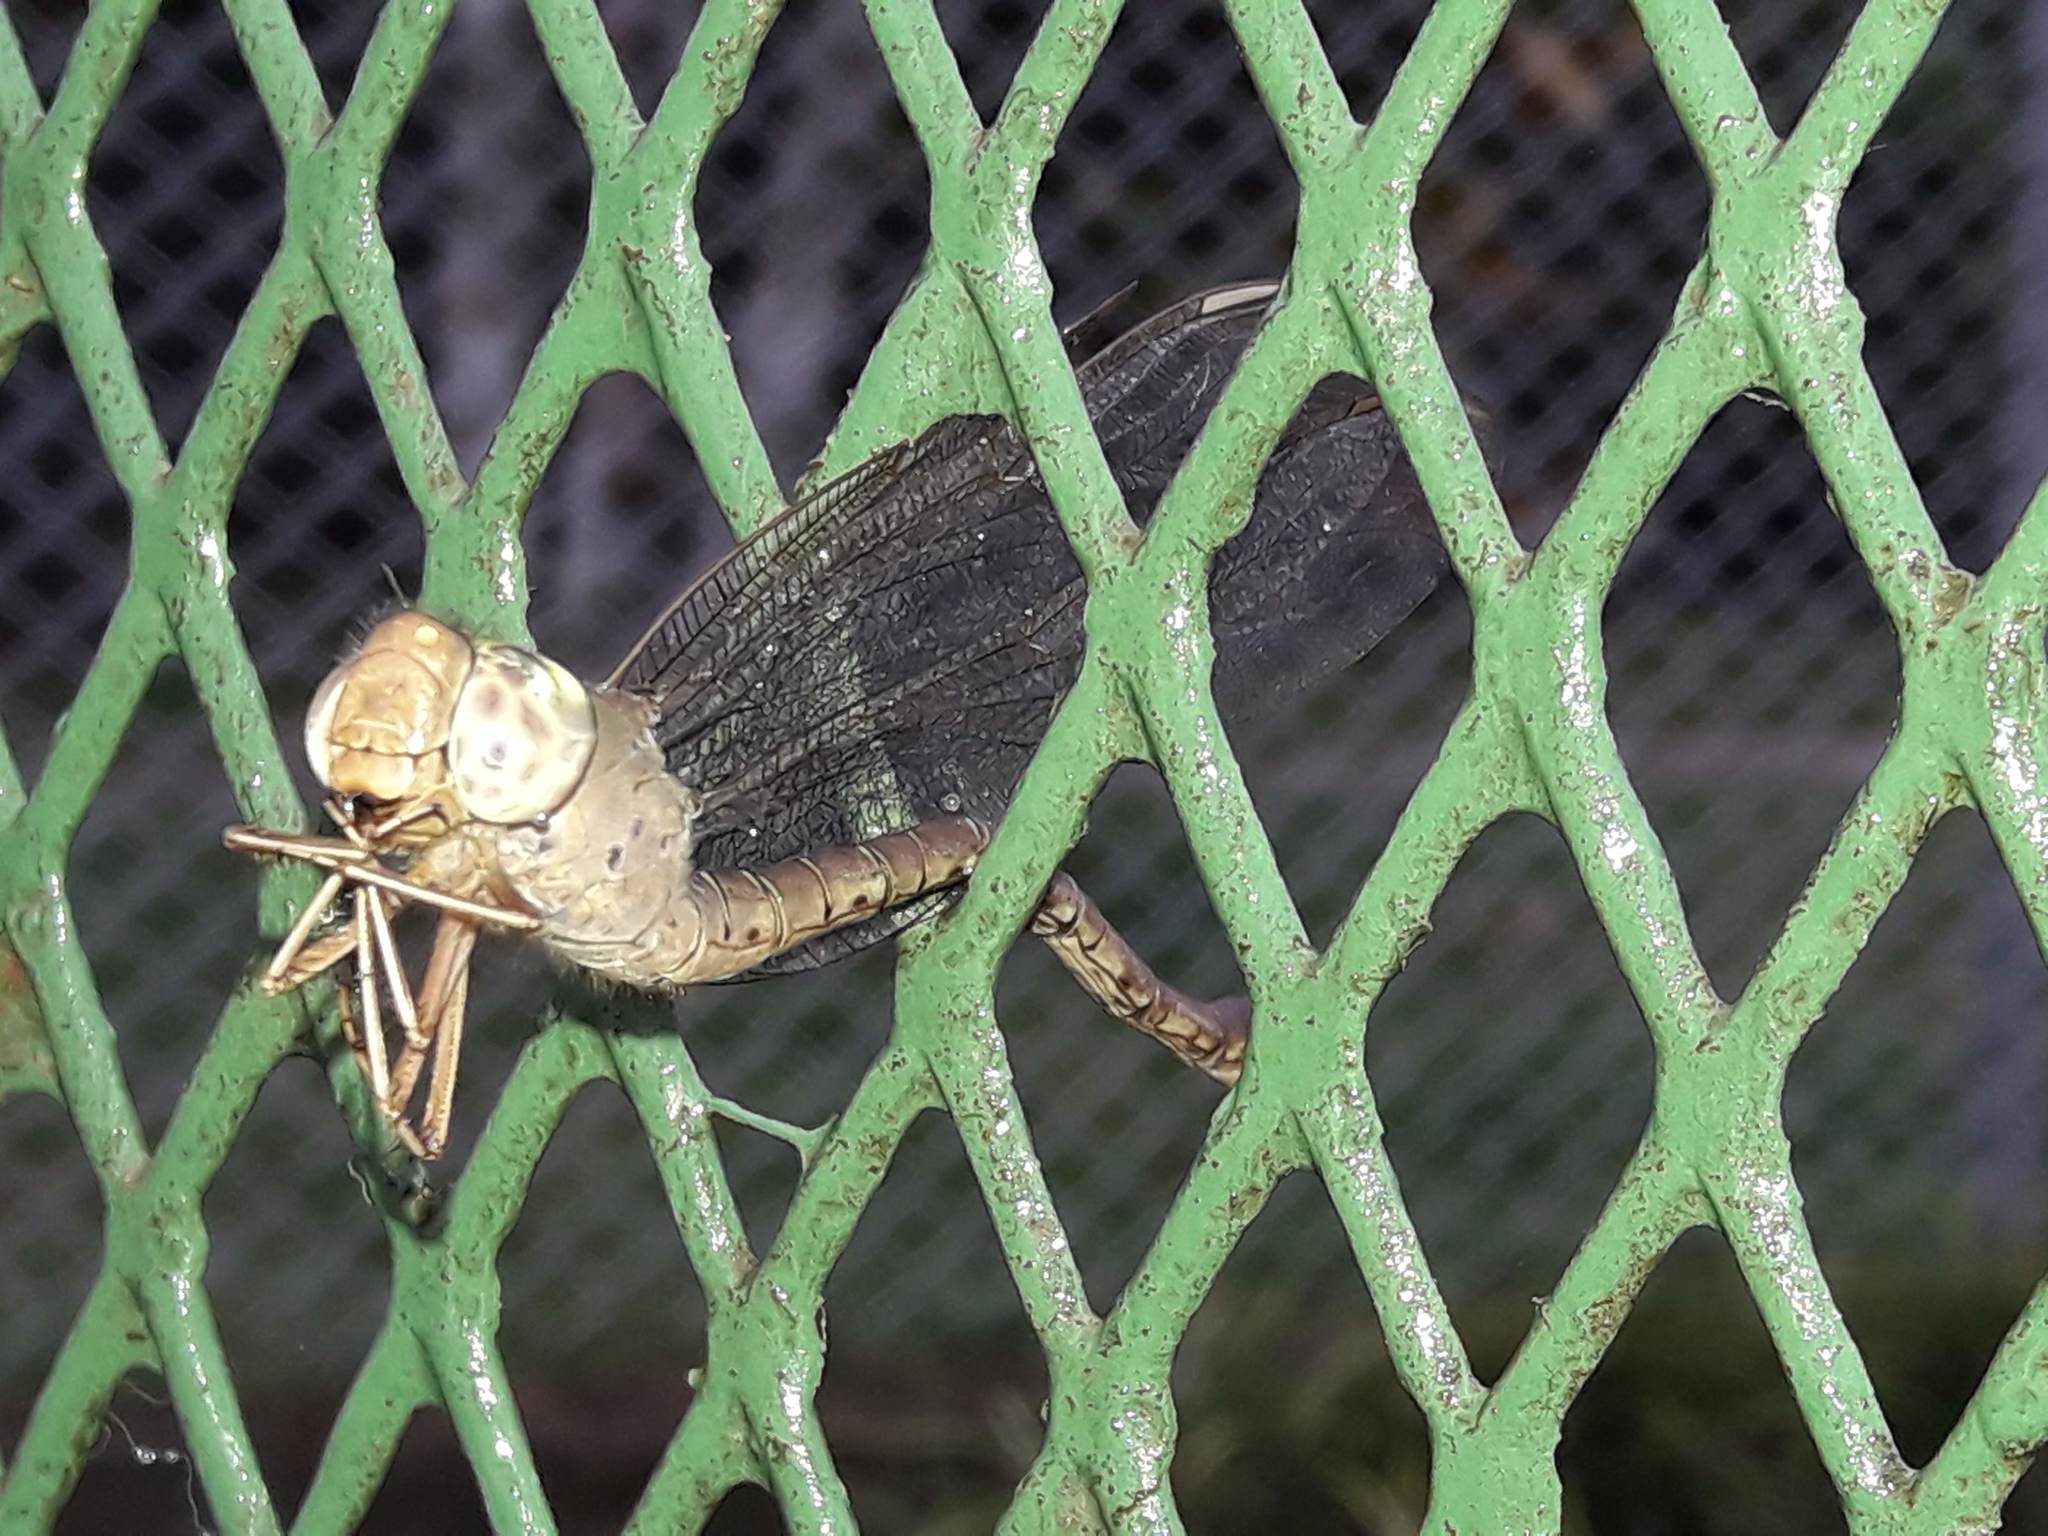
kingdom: Animalia
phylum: Arthropoda
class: Insecta
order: Odonata
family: Aeshnidae
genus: Gynacantha
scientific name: Gynacantha nervosa
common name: Twilight darner
